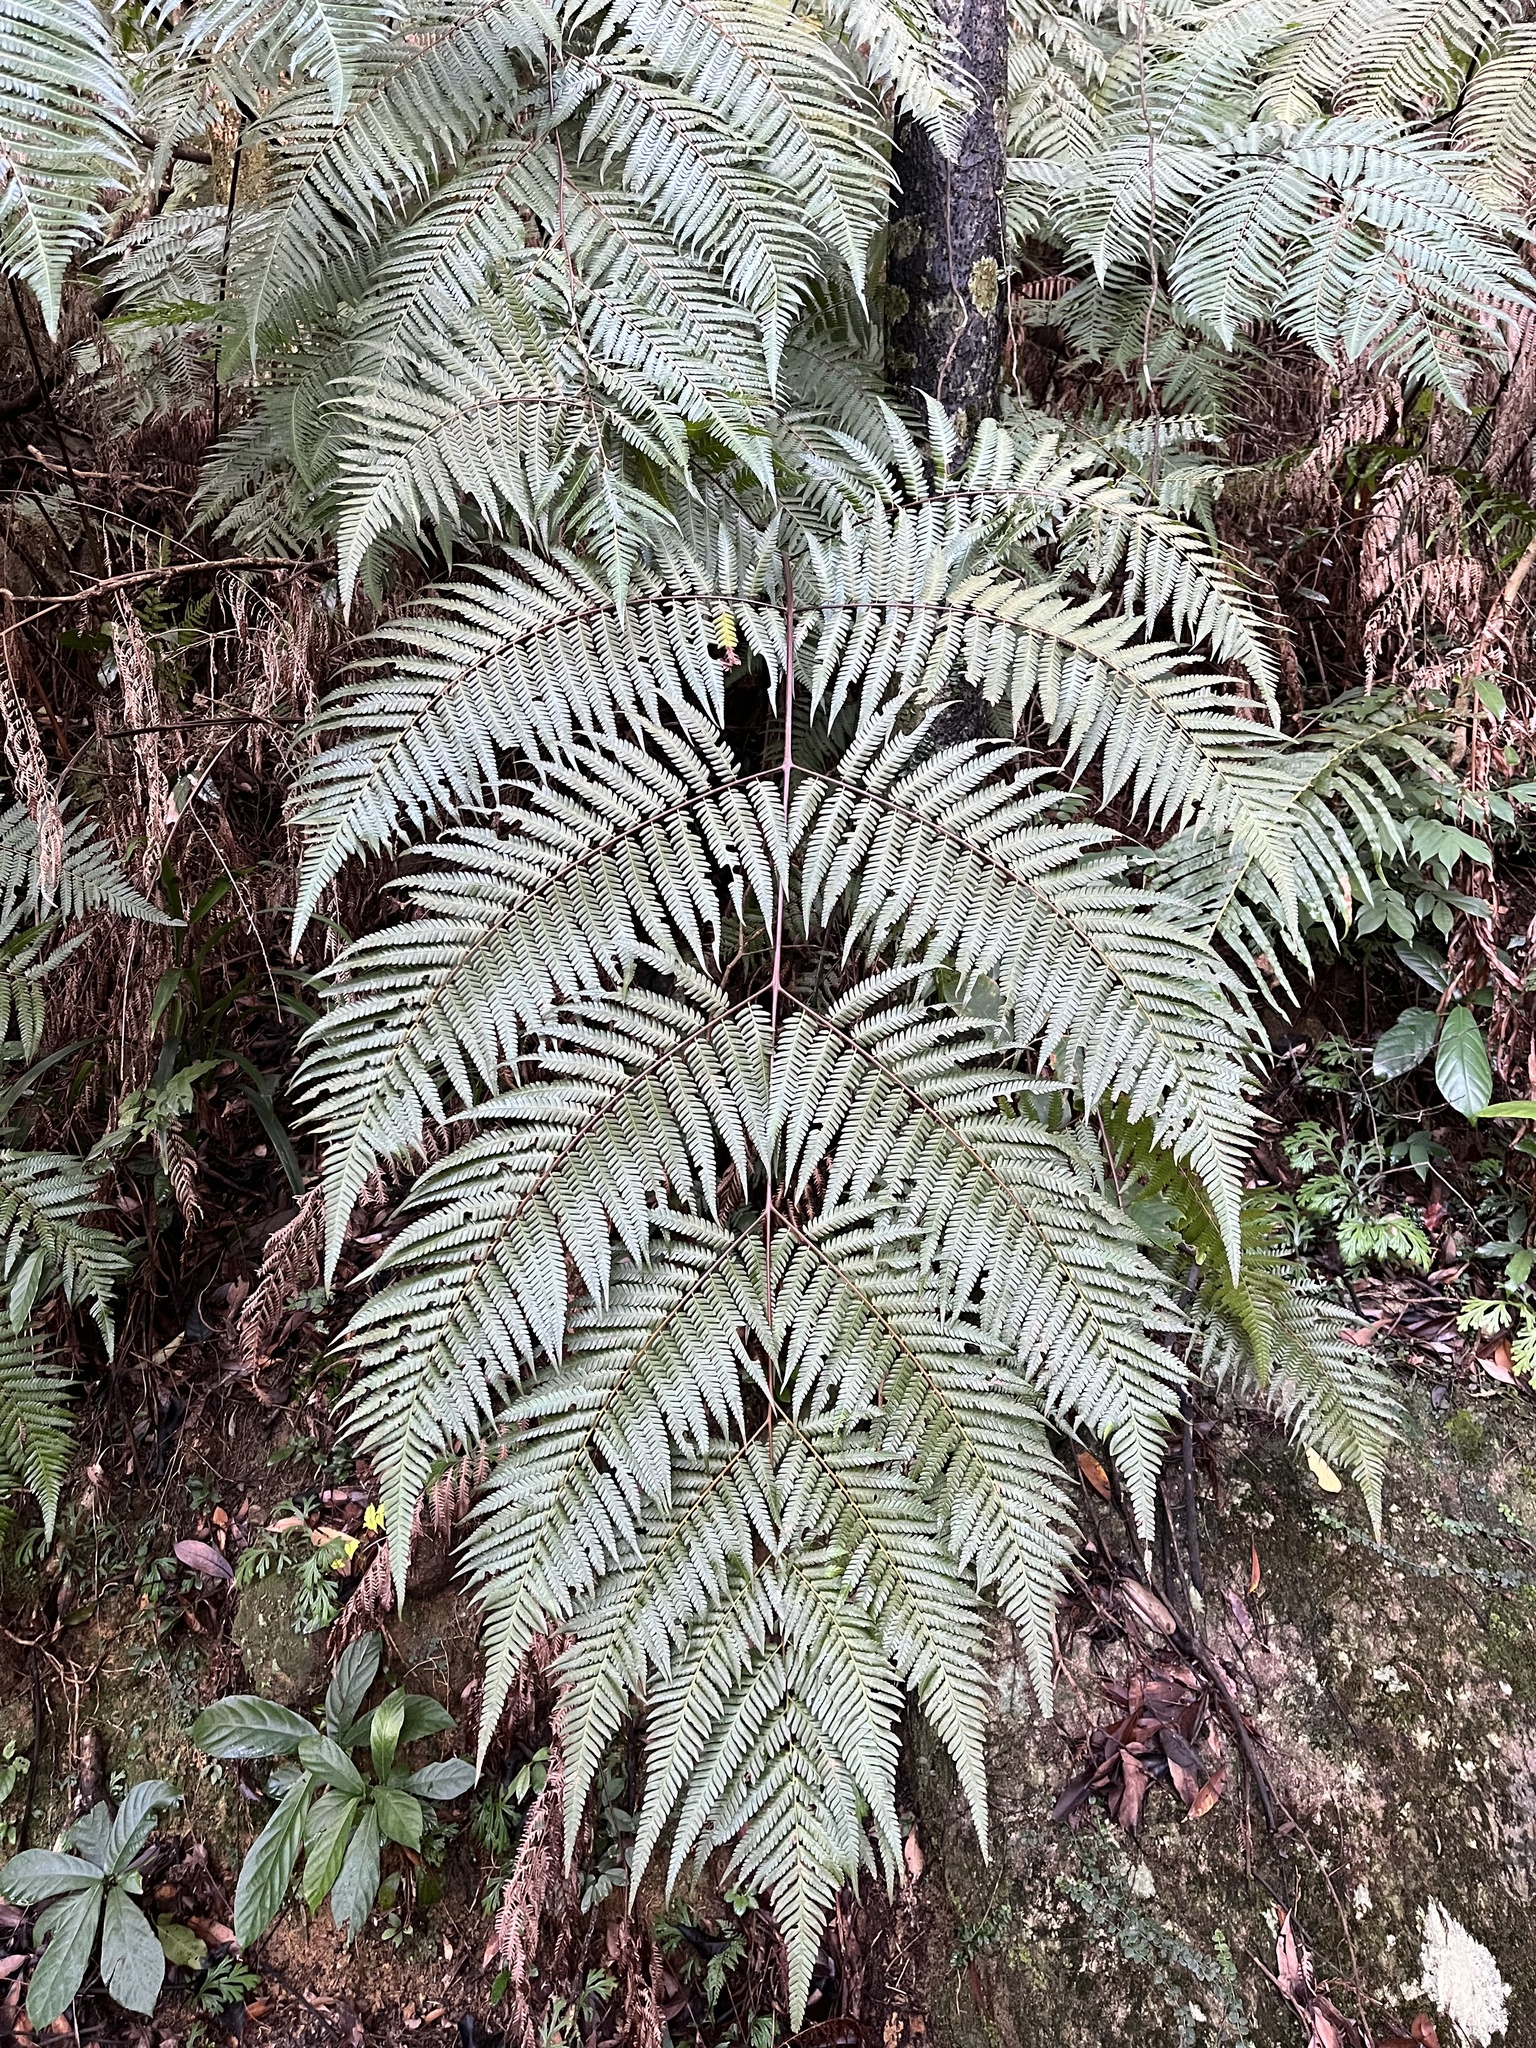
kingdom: Plantae
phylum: Tracheophyta
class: Polypodiopsida
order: Cyatheales
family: Cibotiaceae
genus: Cibotium
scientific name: Cibotium barometz
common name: Scythian-lamb
